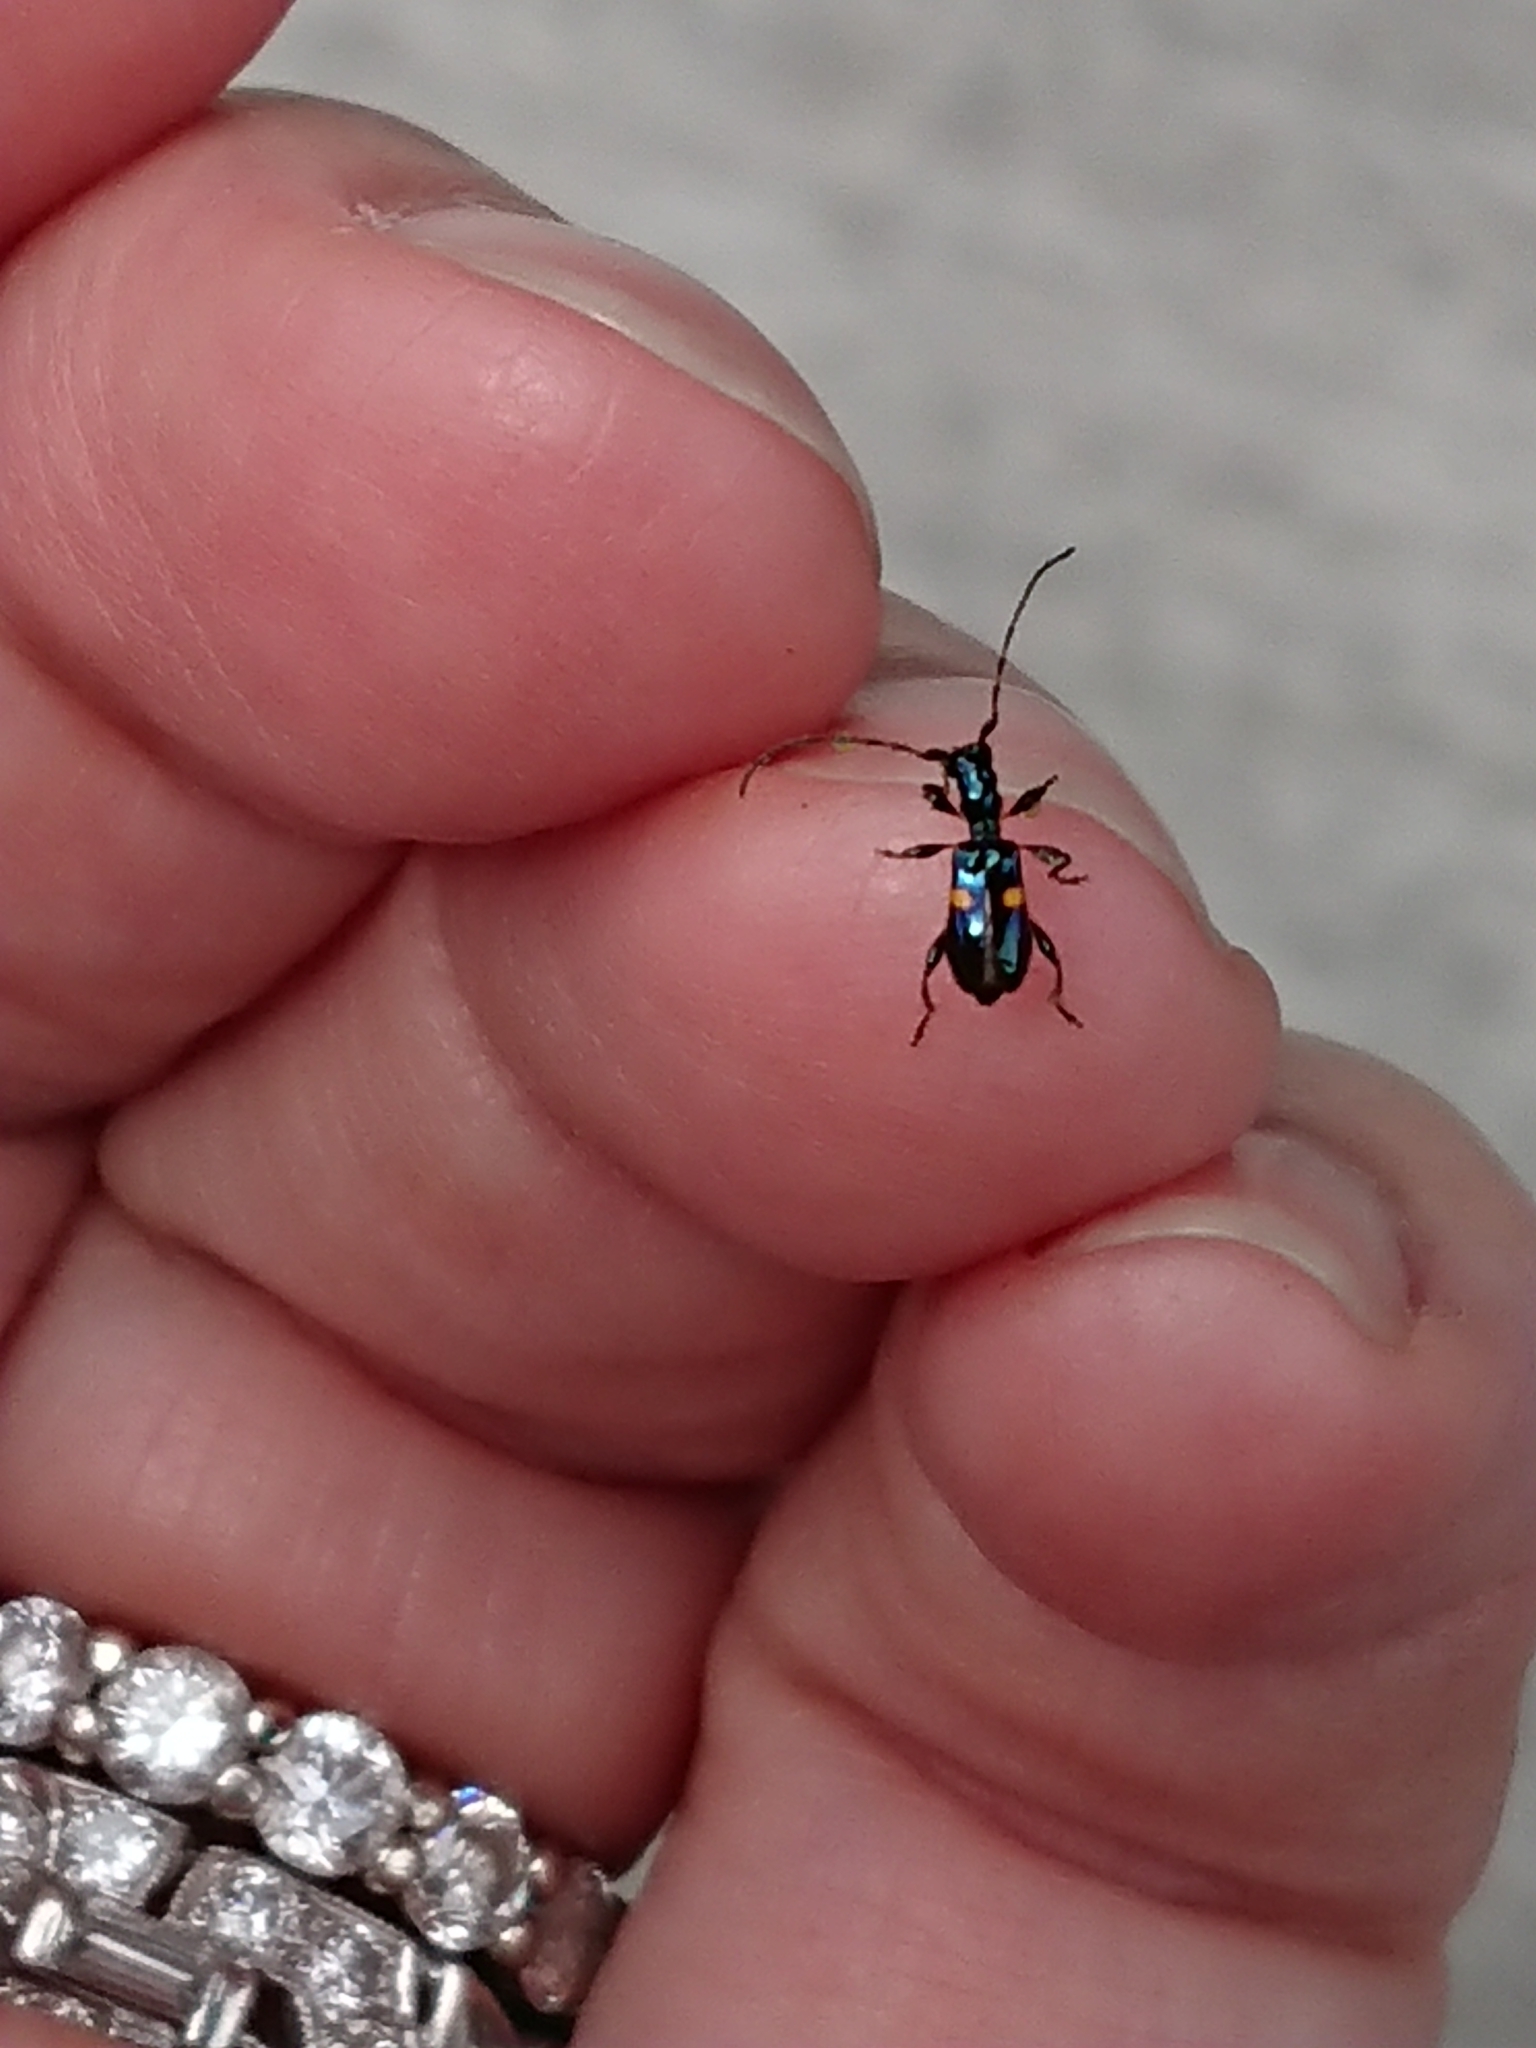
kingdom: Animalia
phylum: Arthropoda
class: Insecta
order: Coleoptera
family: Cerambycidae
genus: Zorion
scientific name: Zorion guttigerum
